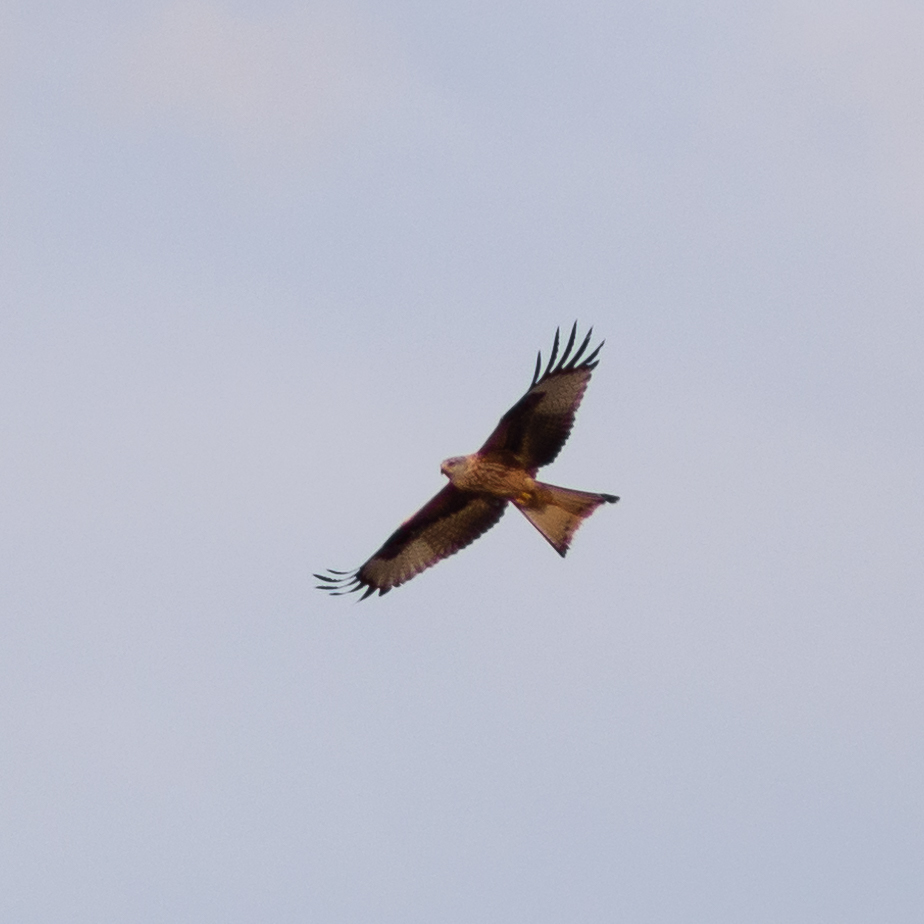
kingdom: Animalia
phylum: Chordata
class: Aves
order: Accipitriformes
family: Accipitridae
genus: Milvus
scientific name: Milvus milvus
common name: Red kite
